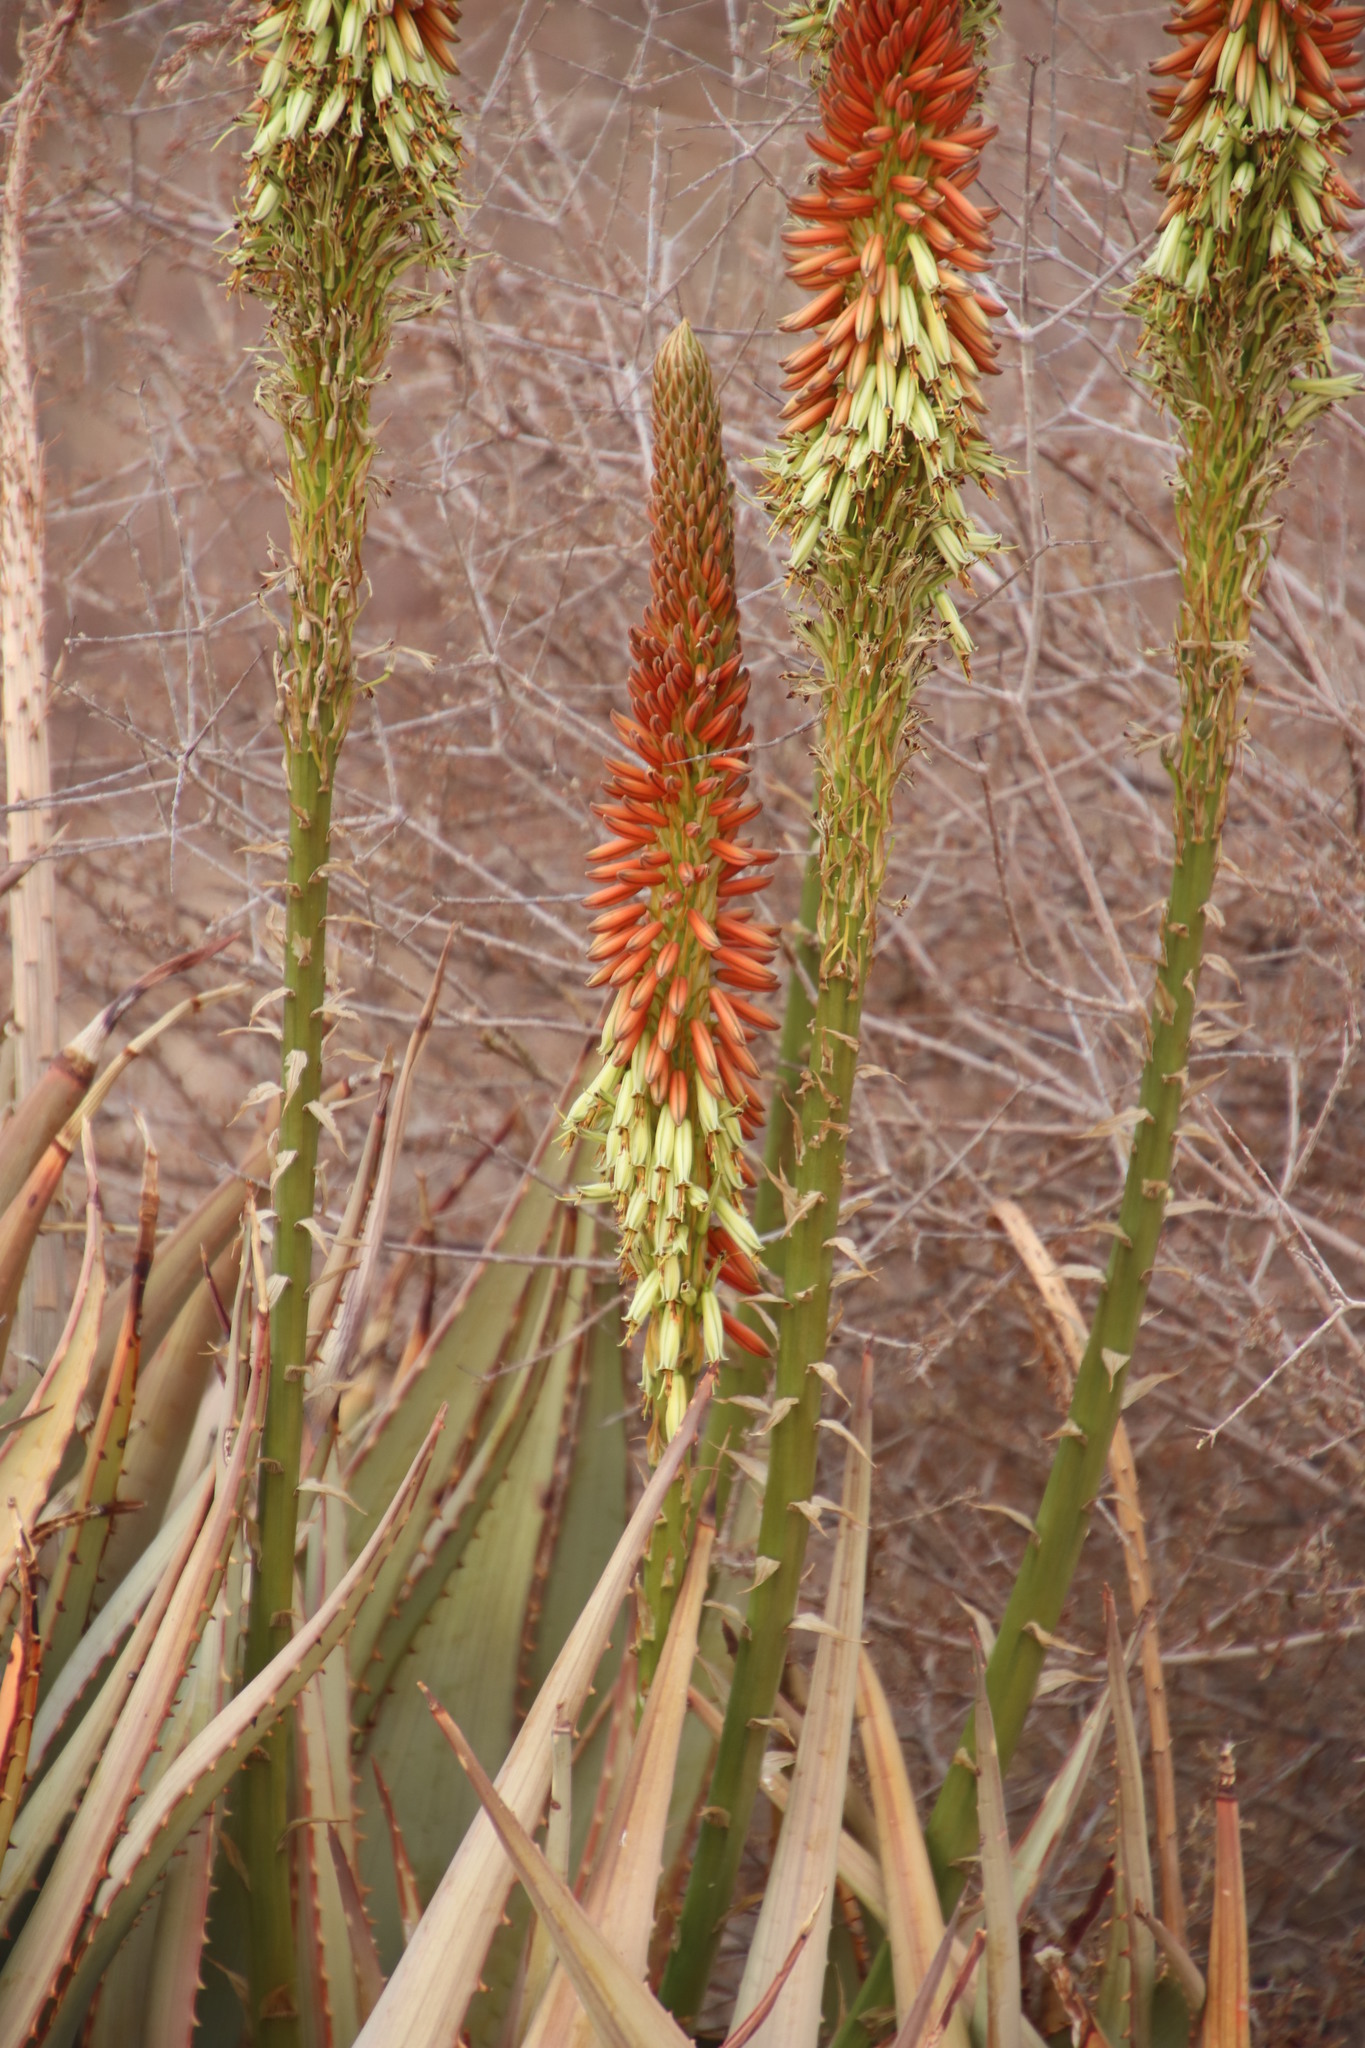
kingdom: Plantae
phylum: Tracheophyta
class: Liliopsida
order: Asparagales
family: Asphodelaceae
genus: Aloe
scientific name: Aloe gariepensis
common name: Orange river aloe
